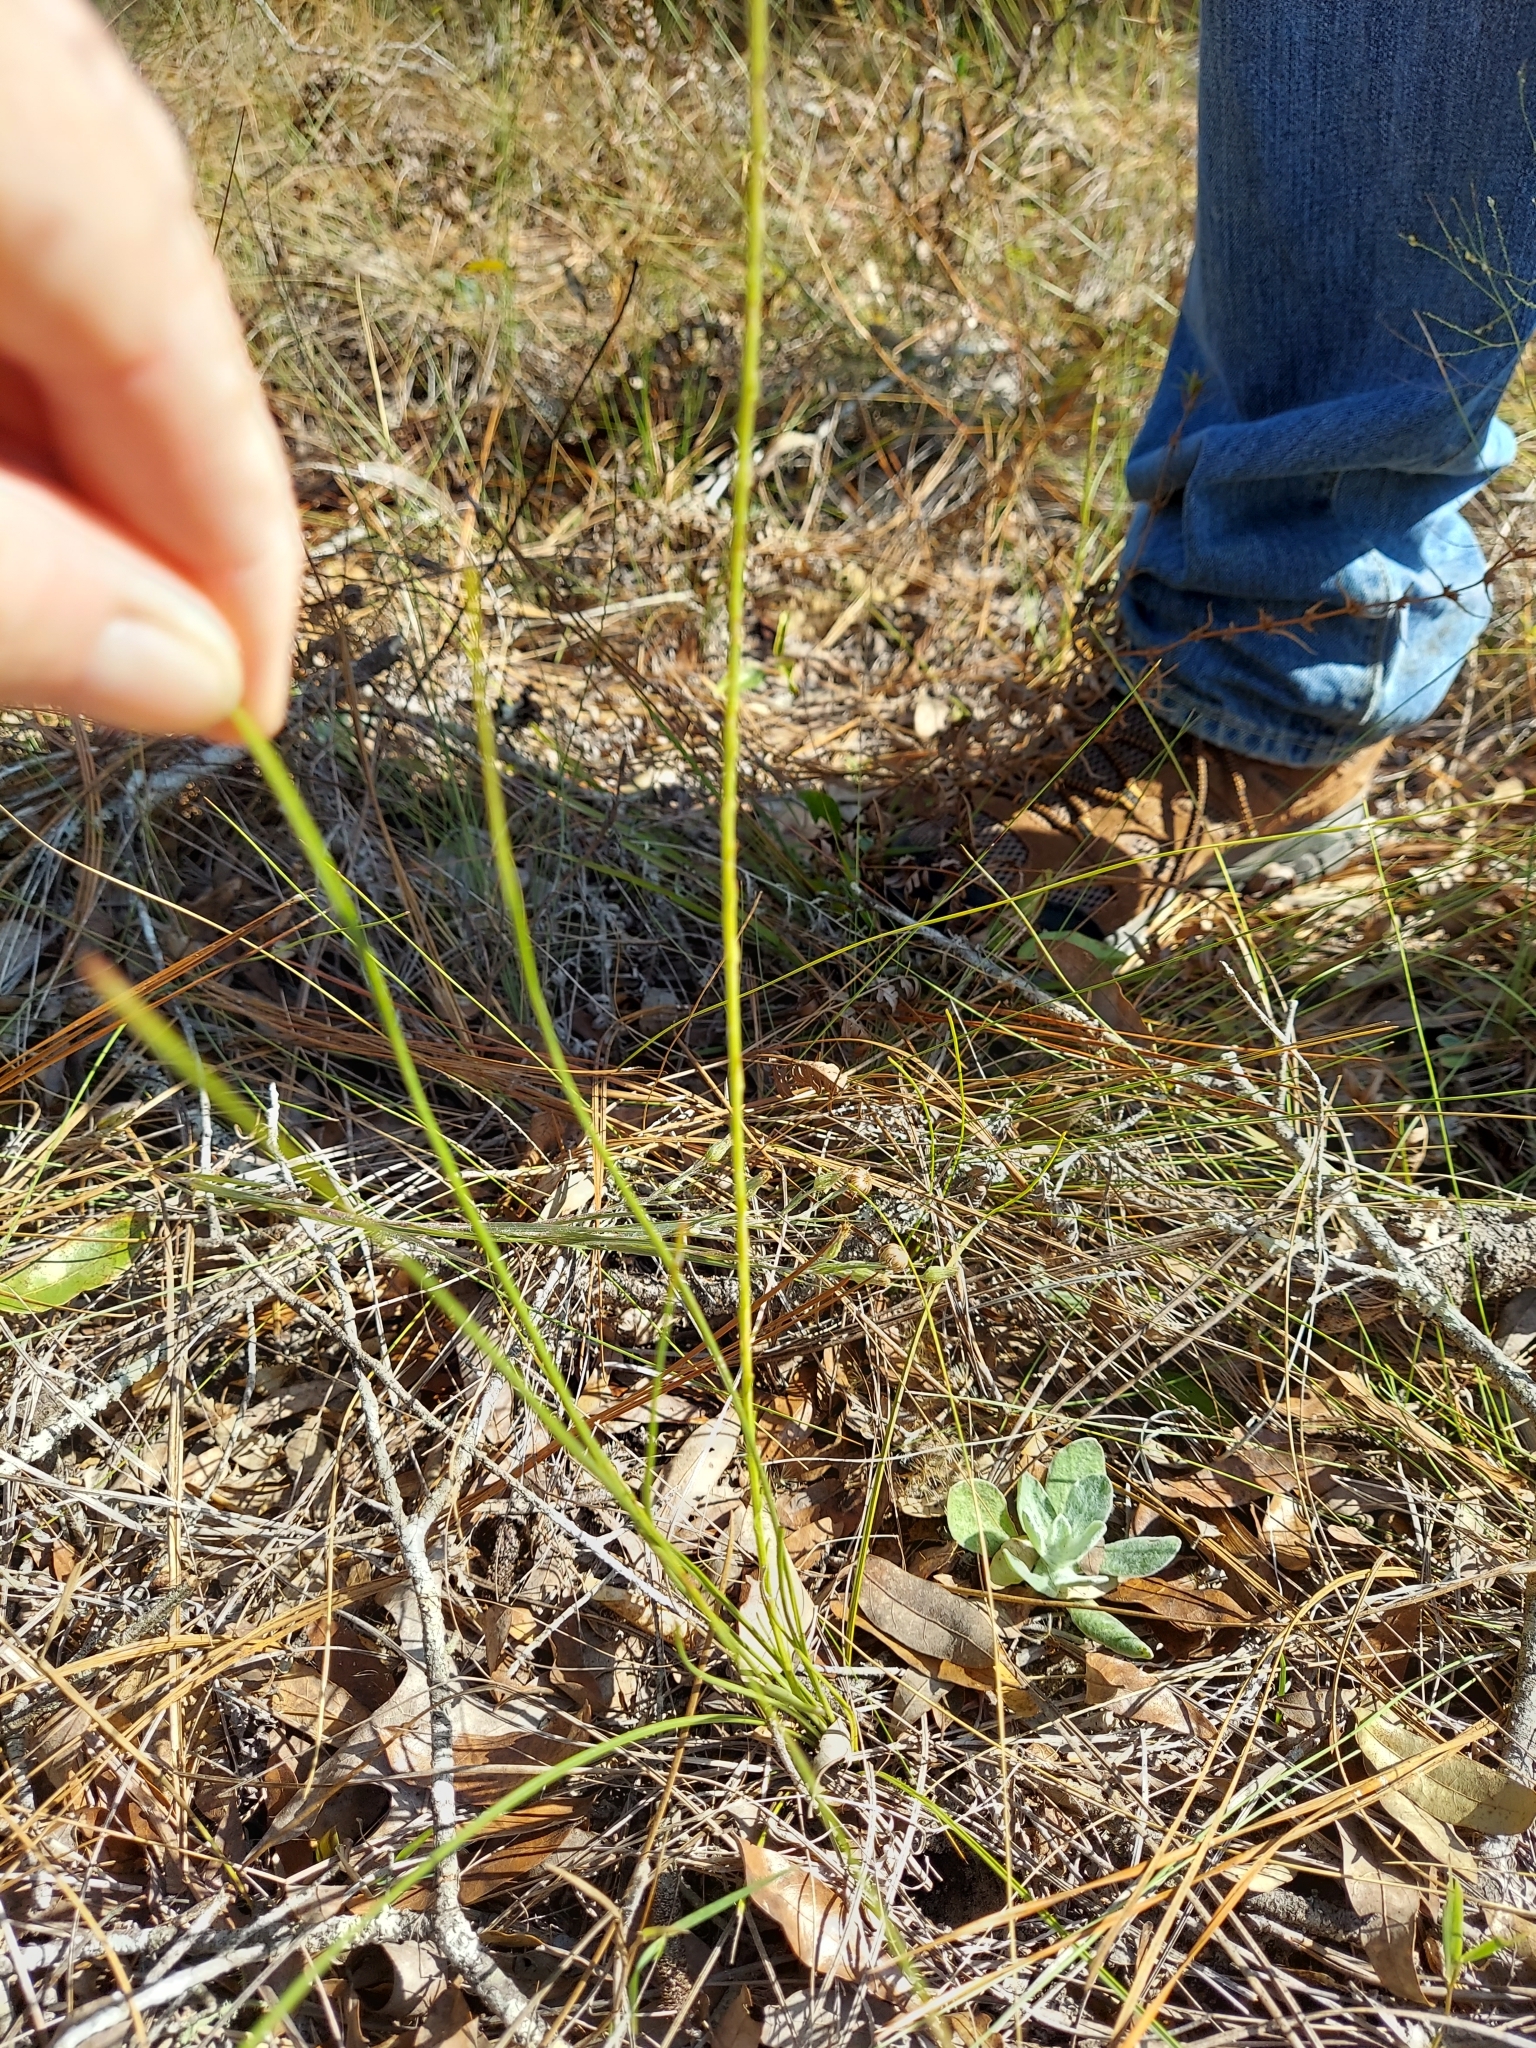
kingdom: Plantae
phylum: Tracheophyta
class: Magnoliopsida
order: Asterales
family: Asteraceae
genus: Liatris
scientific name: Liatris quadriflora
